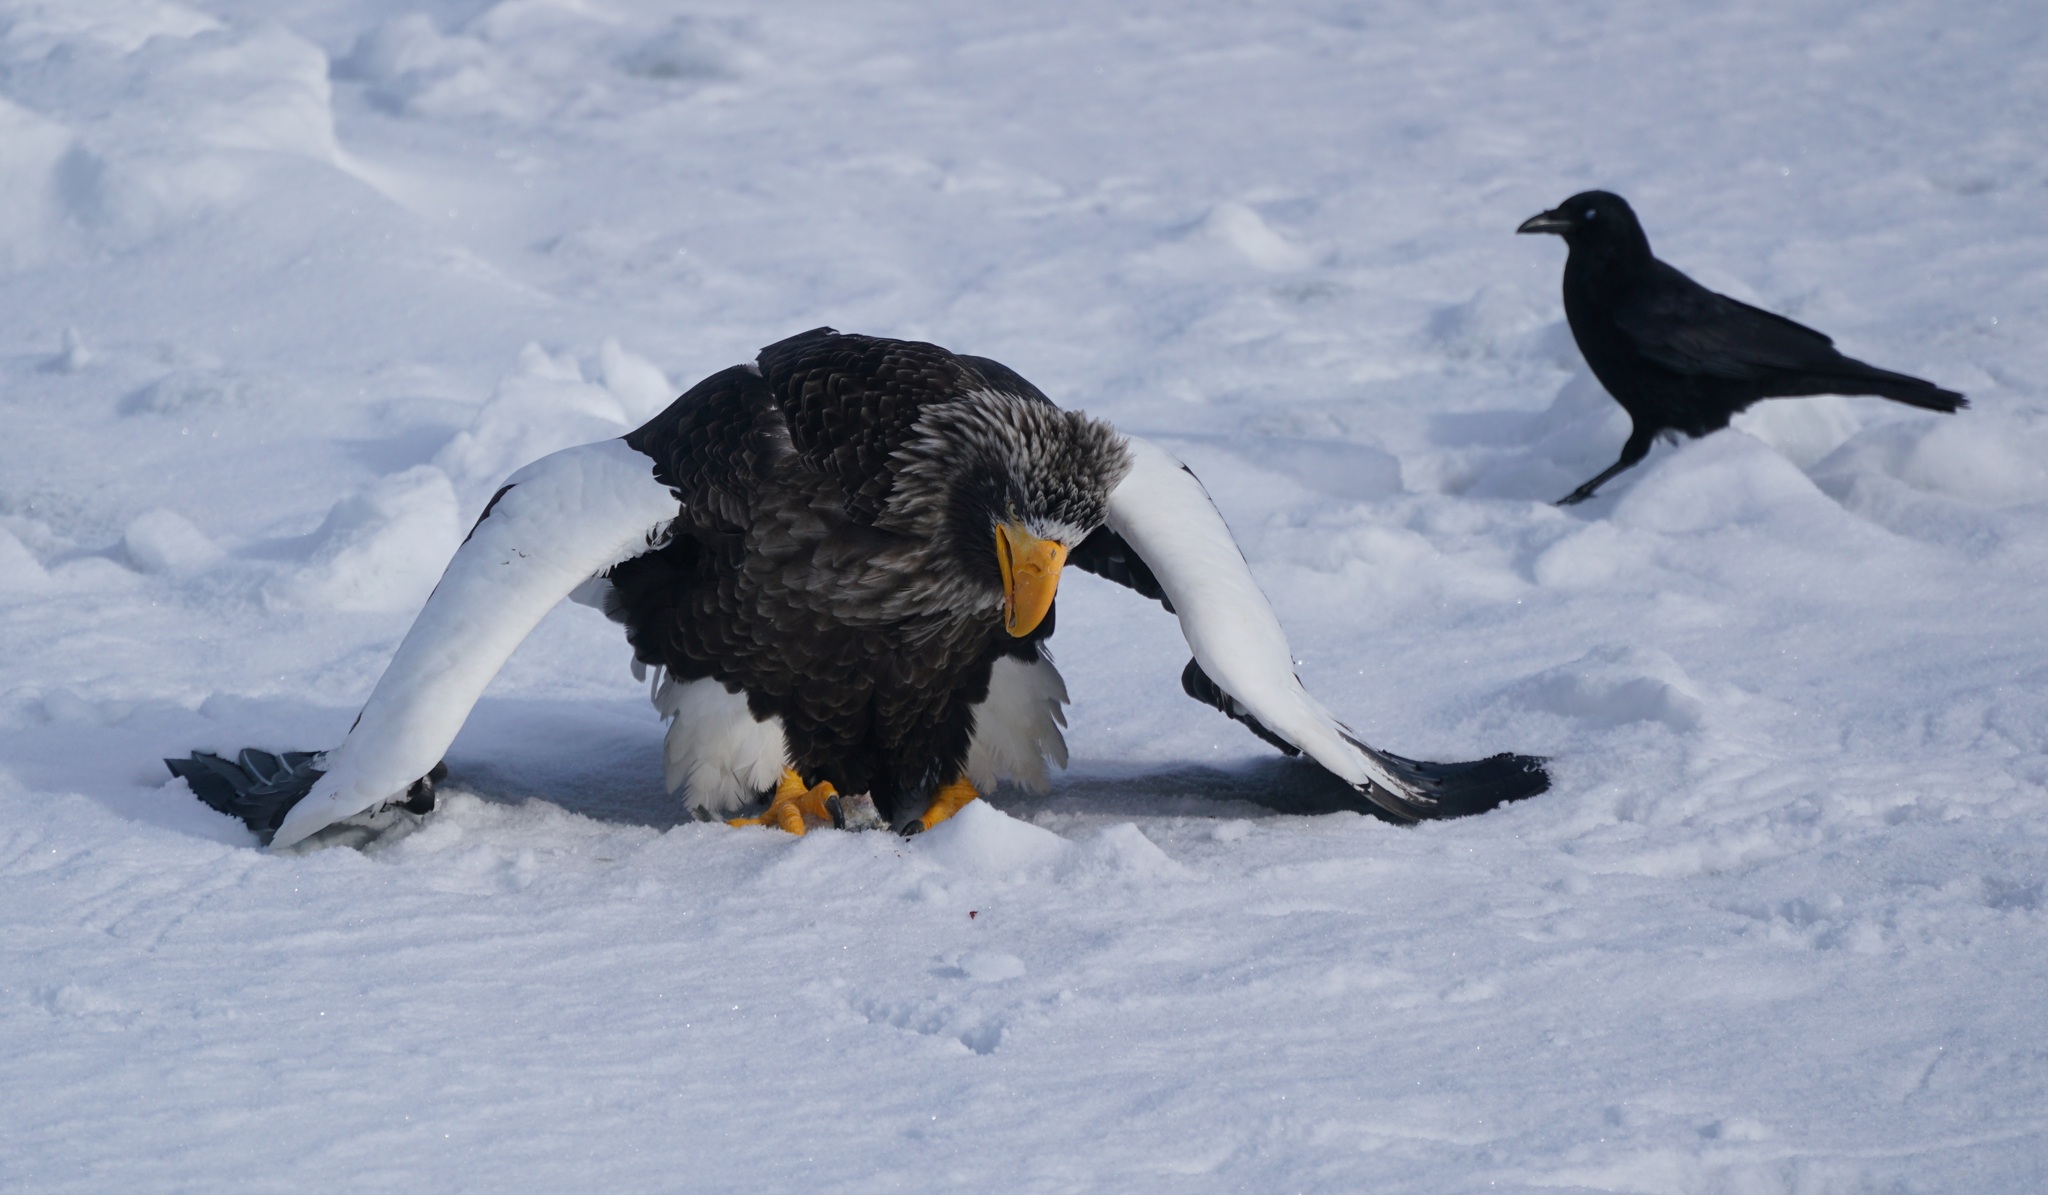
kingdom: Animalia
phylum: Chordata
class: Aves
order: Accipitriformes
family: Accipitridae
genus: Haliaeetus
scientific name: Haliaeetus pelagicus
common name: Steller's sea eagle
